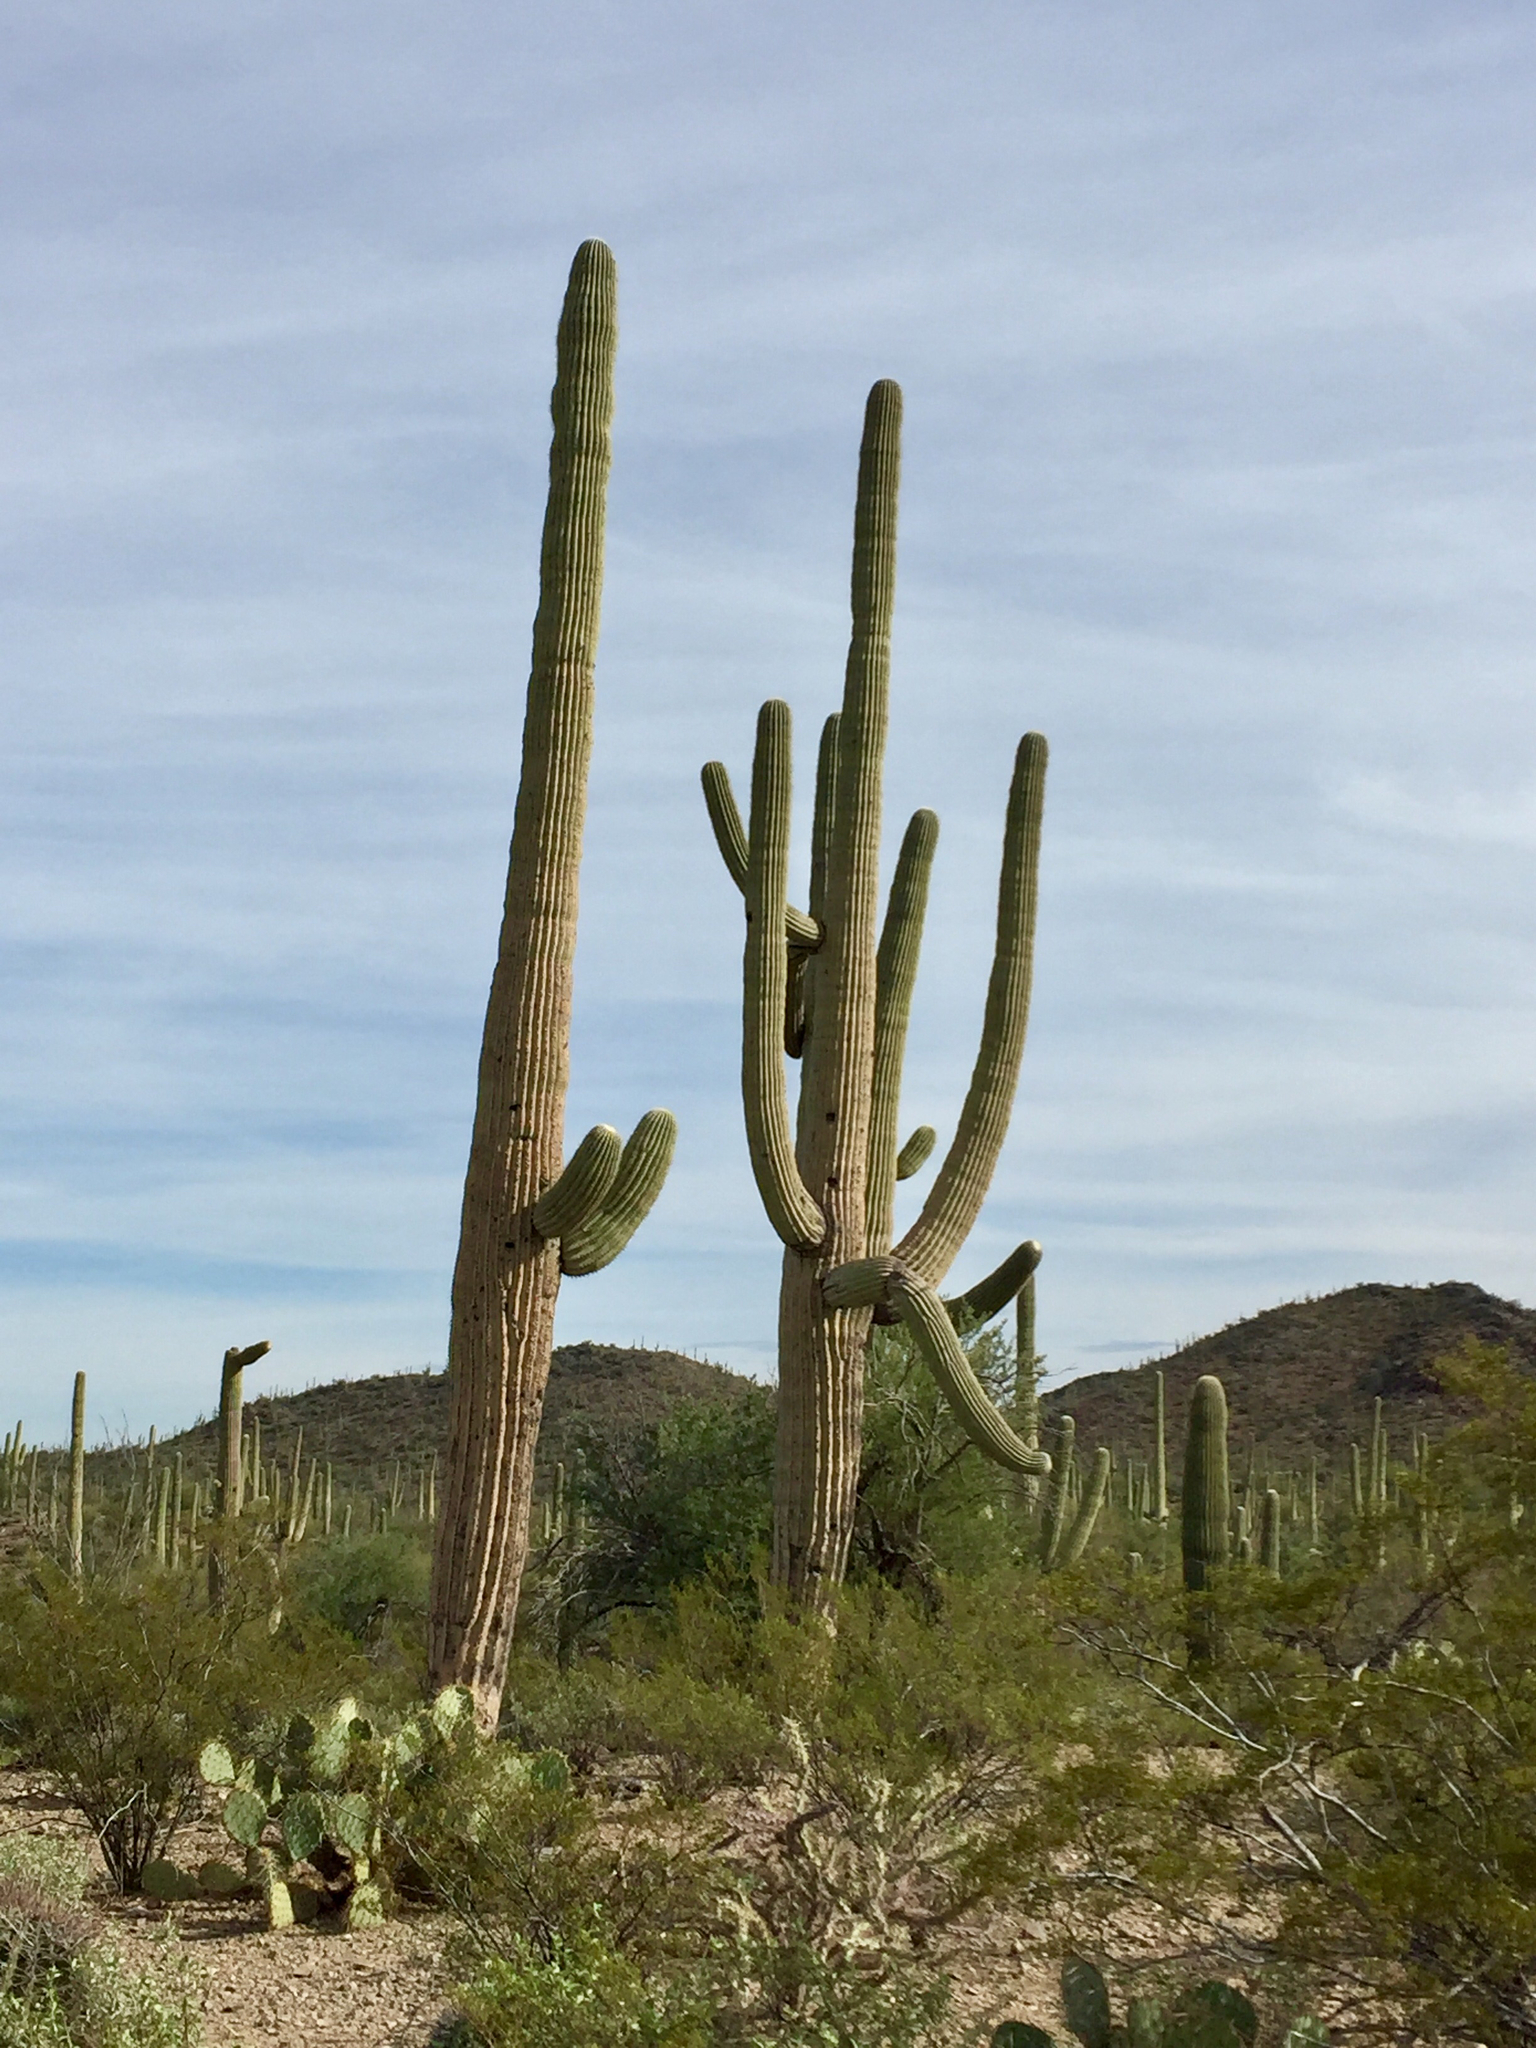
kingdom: Plantae
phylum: Tracheophyta
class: Magnoliopsida
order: Caryophyllales
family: Cactaceae
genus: Carnegiea
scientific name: Carnegiea gigantea
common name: Saguaro
